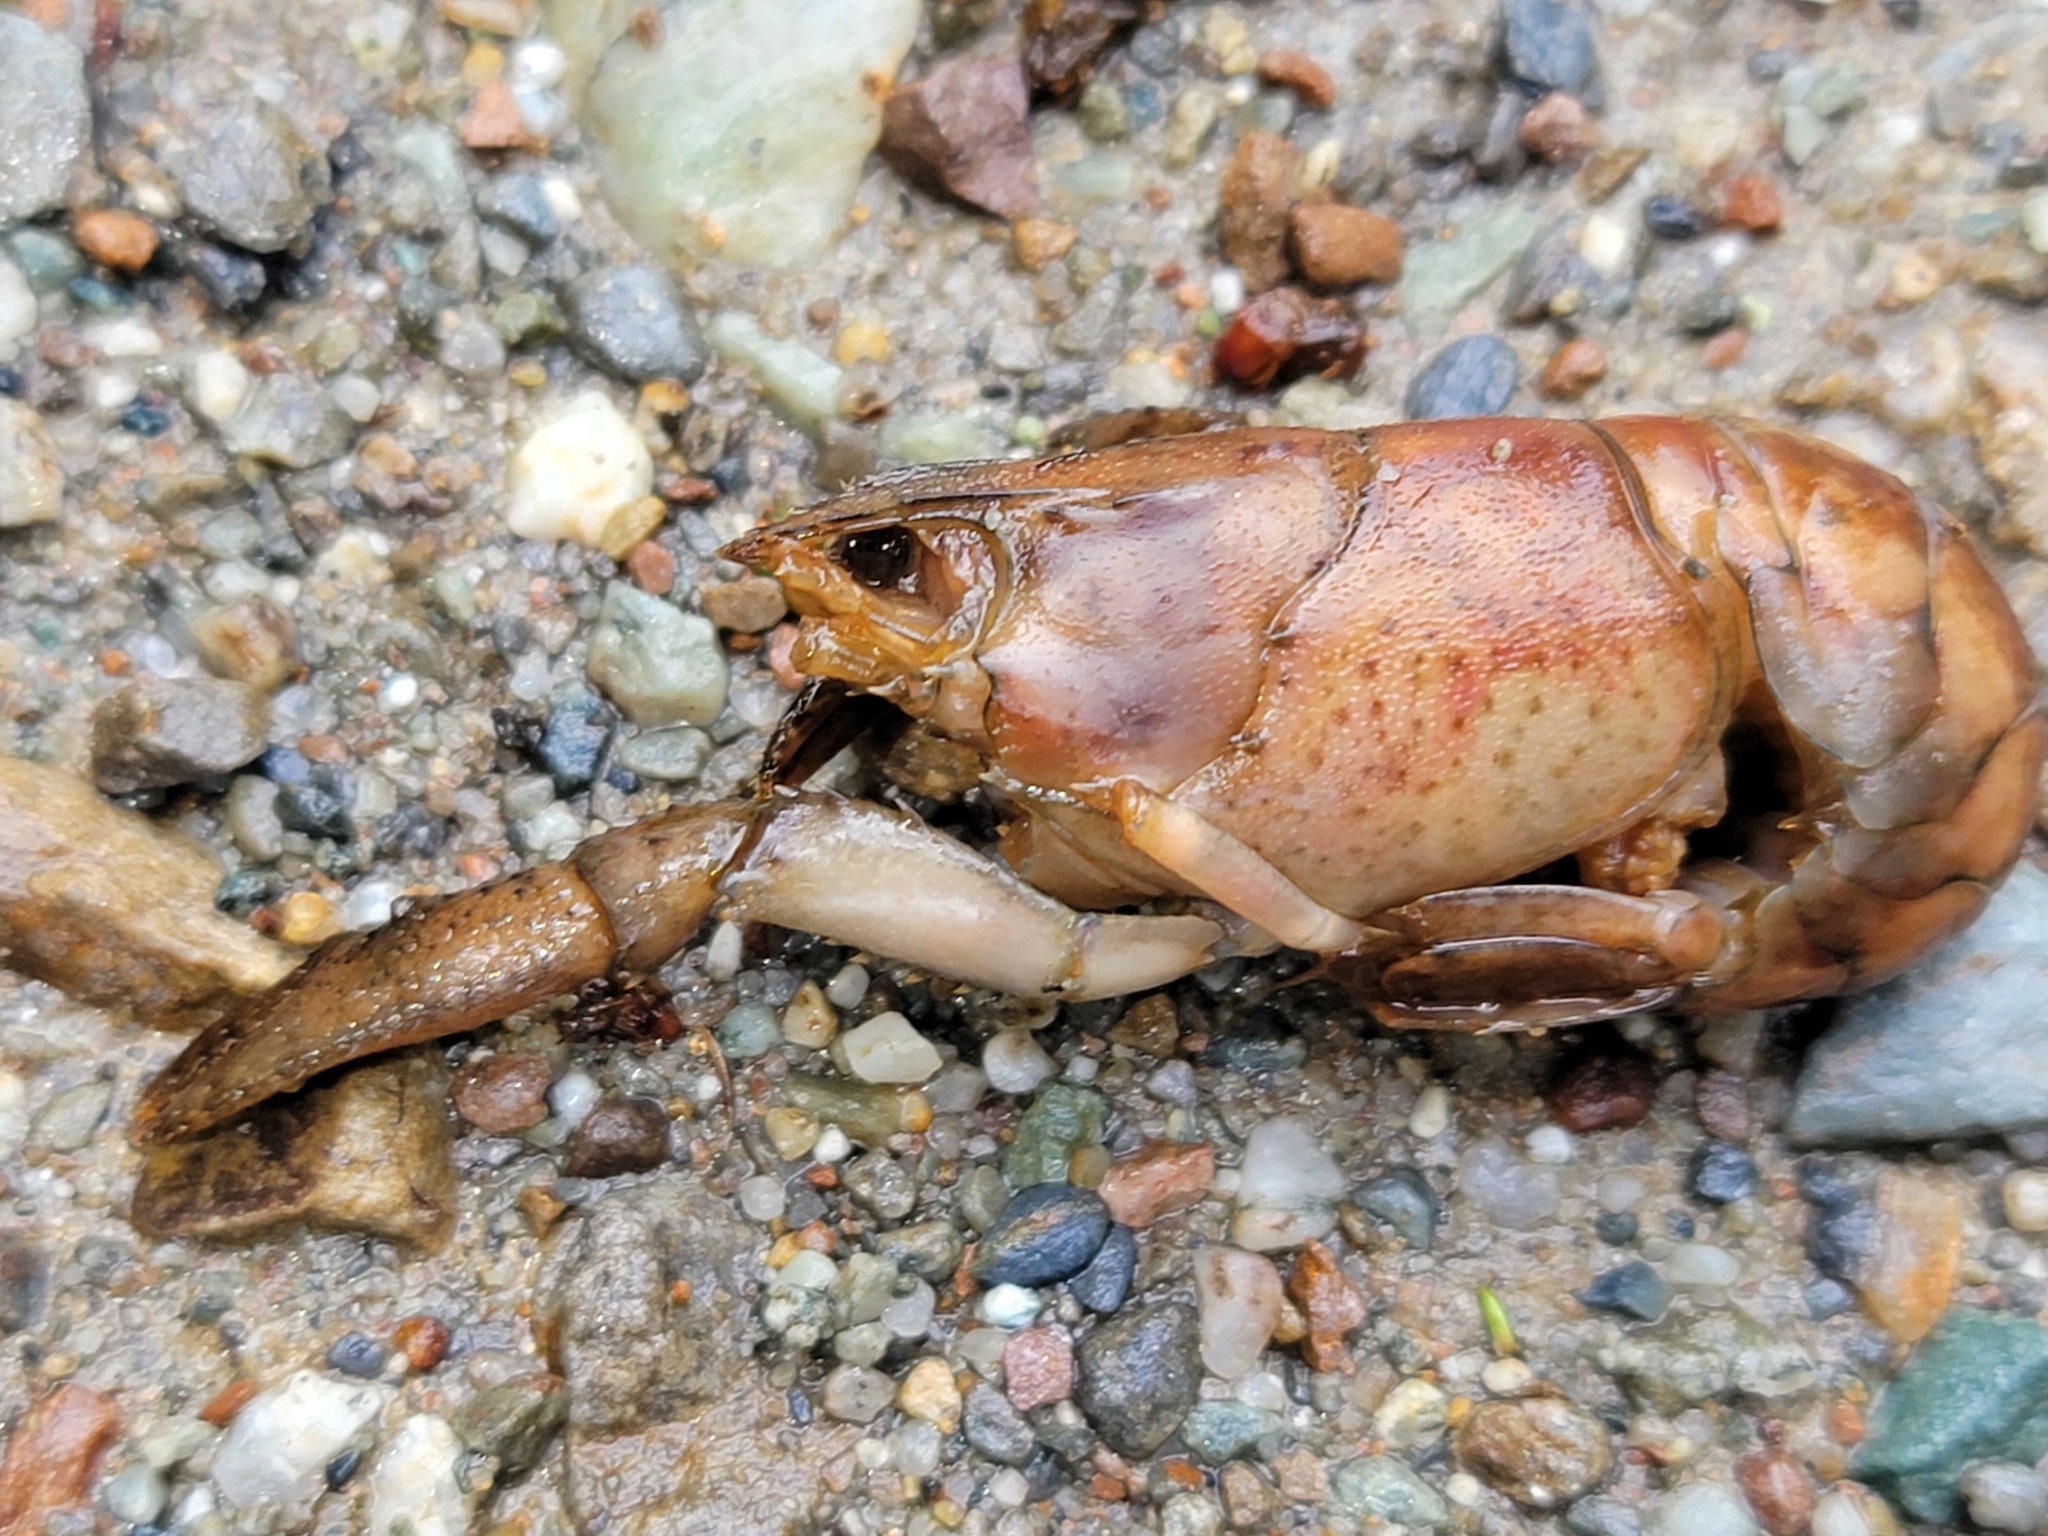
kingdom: Animalia
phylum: Arthropoda
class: Malacostraca
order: Decapoda
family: Parastacidae
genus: Paranephrops
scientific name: Paranephrops planifrons
